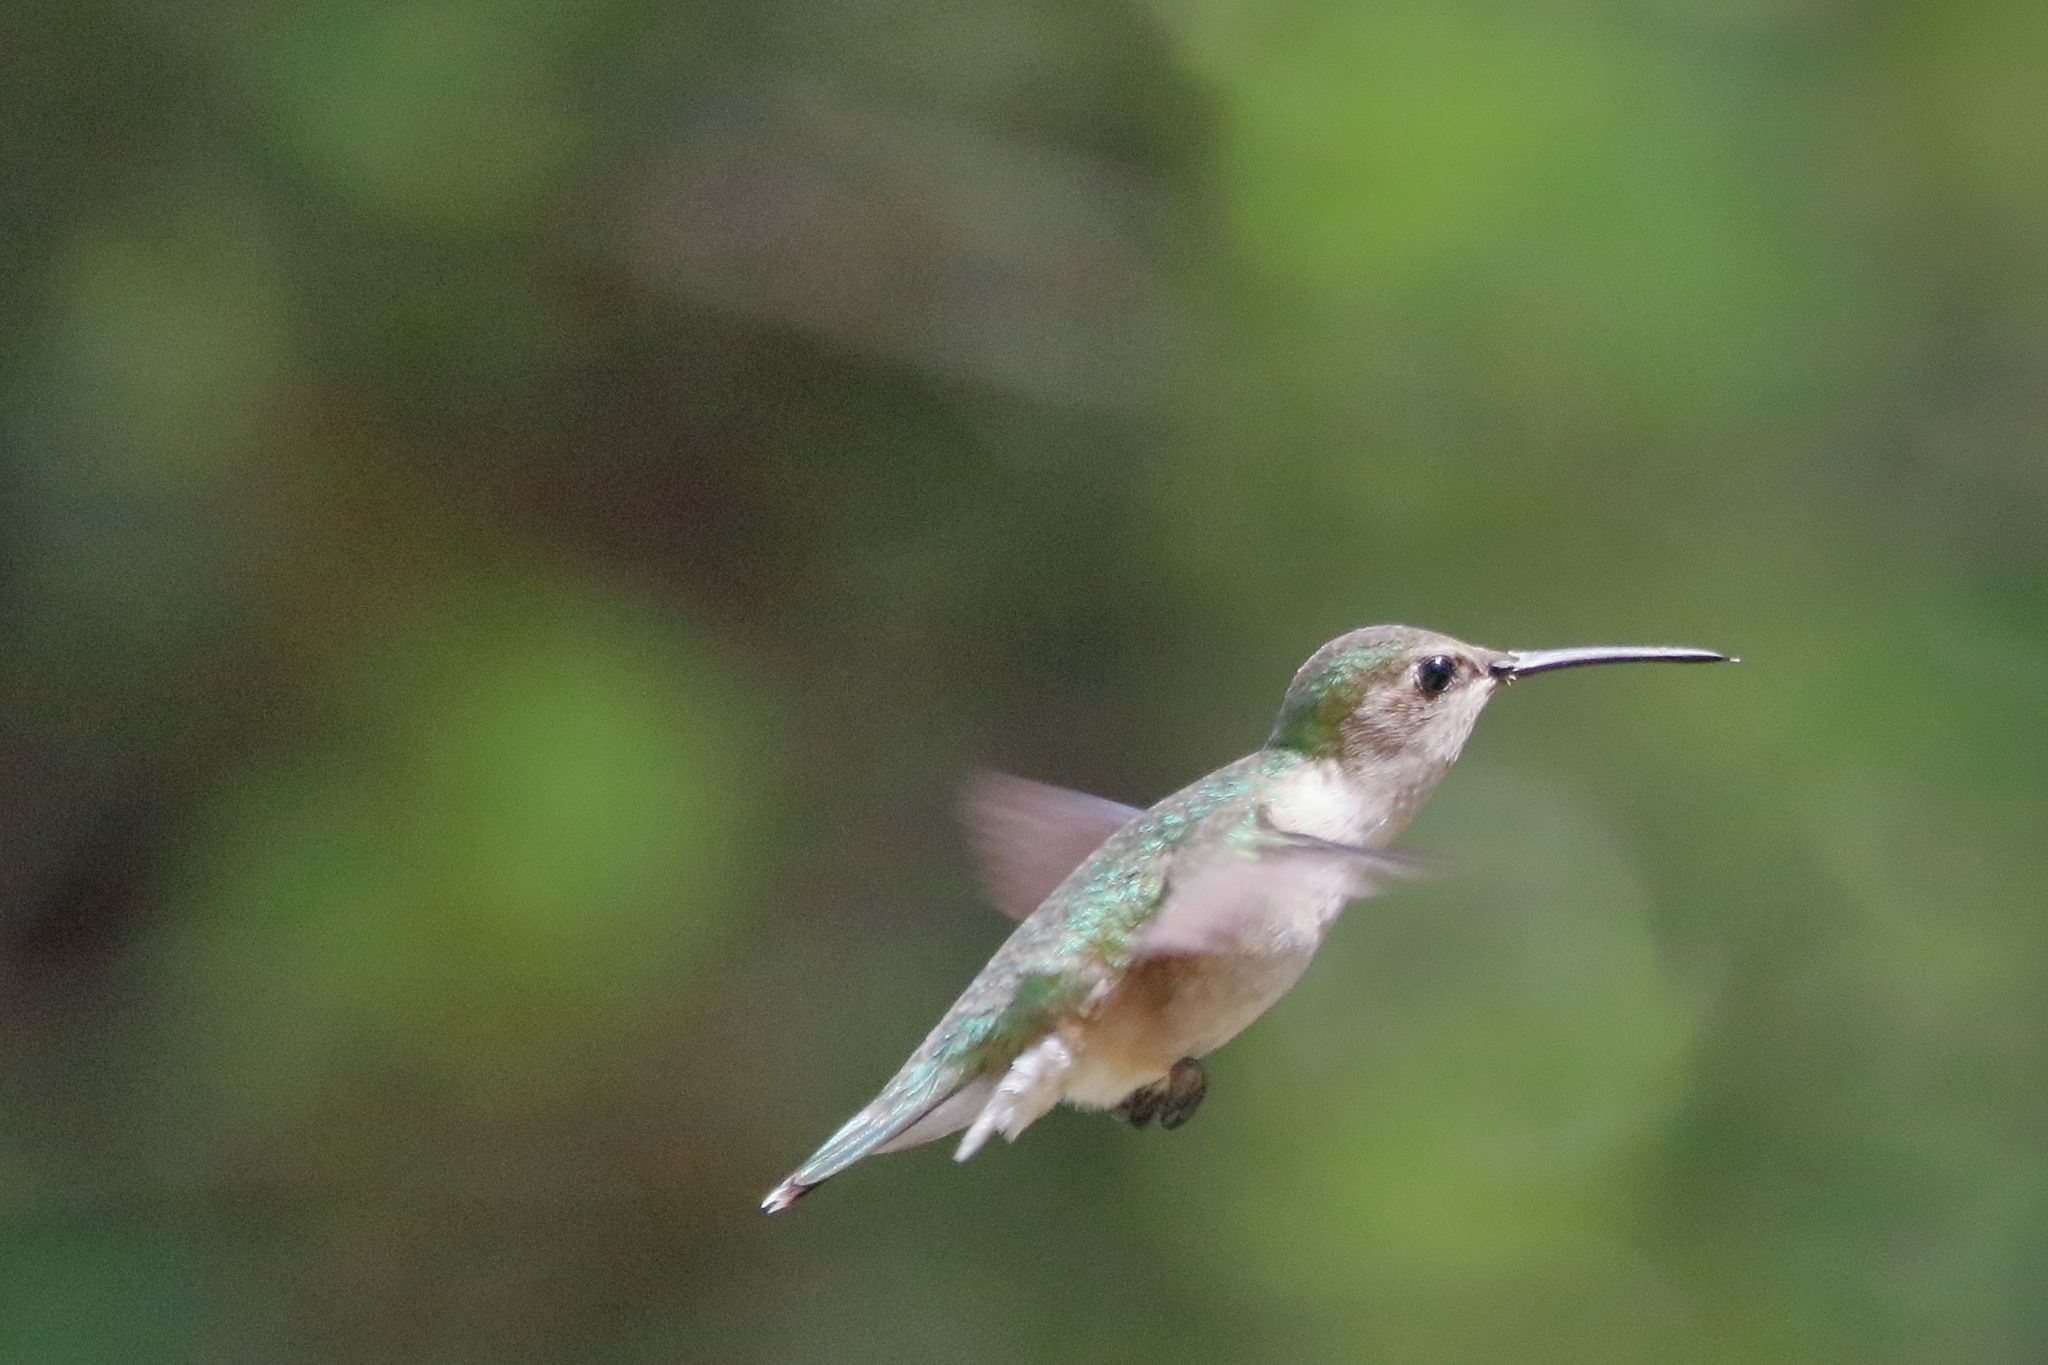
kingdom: Animalia
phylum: Chordata
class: Aves
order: Apodiformes
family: Trochilidae
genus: Archilochus
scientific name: Archilochus colubris
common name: Ruby-throated hummingbird
